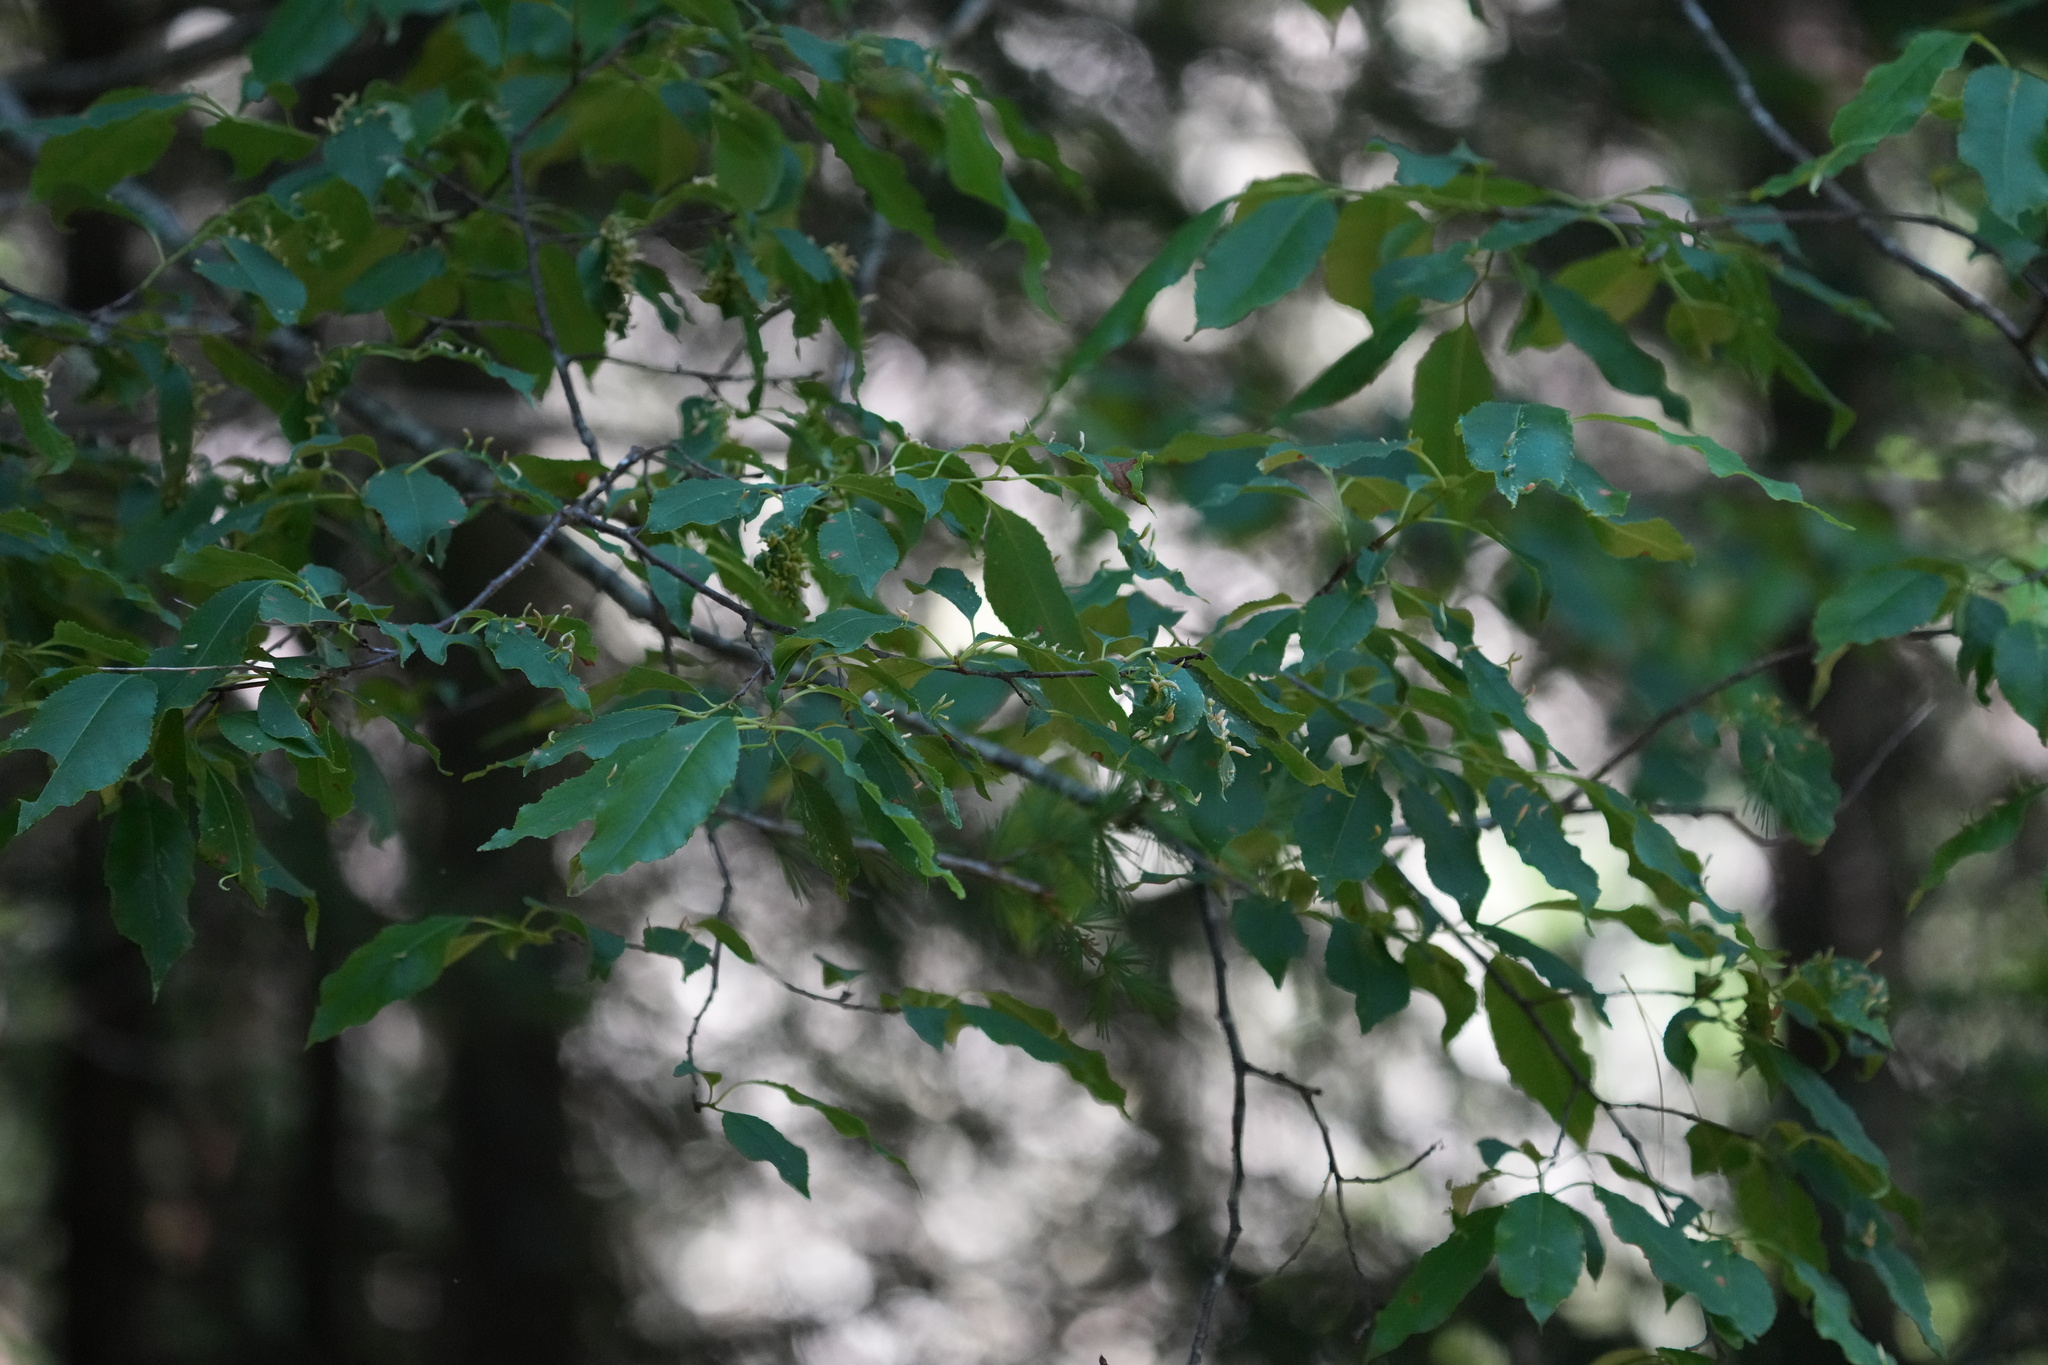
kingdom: Plantae
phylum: Tracheophyta
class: Magnoliopsida
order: Rosales
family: Rosaceae
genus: Prunus
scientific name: Prunus serotina
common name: Black cherry
